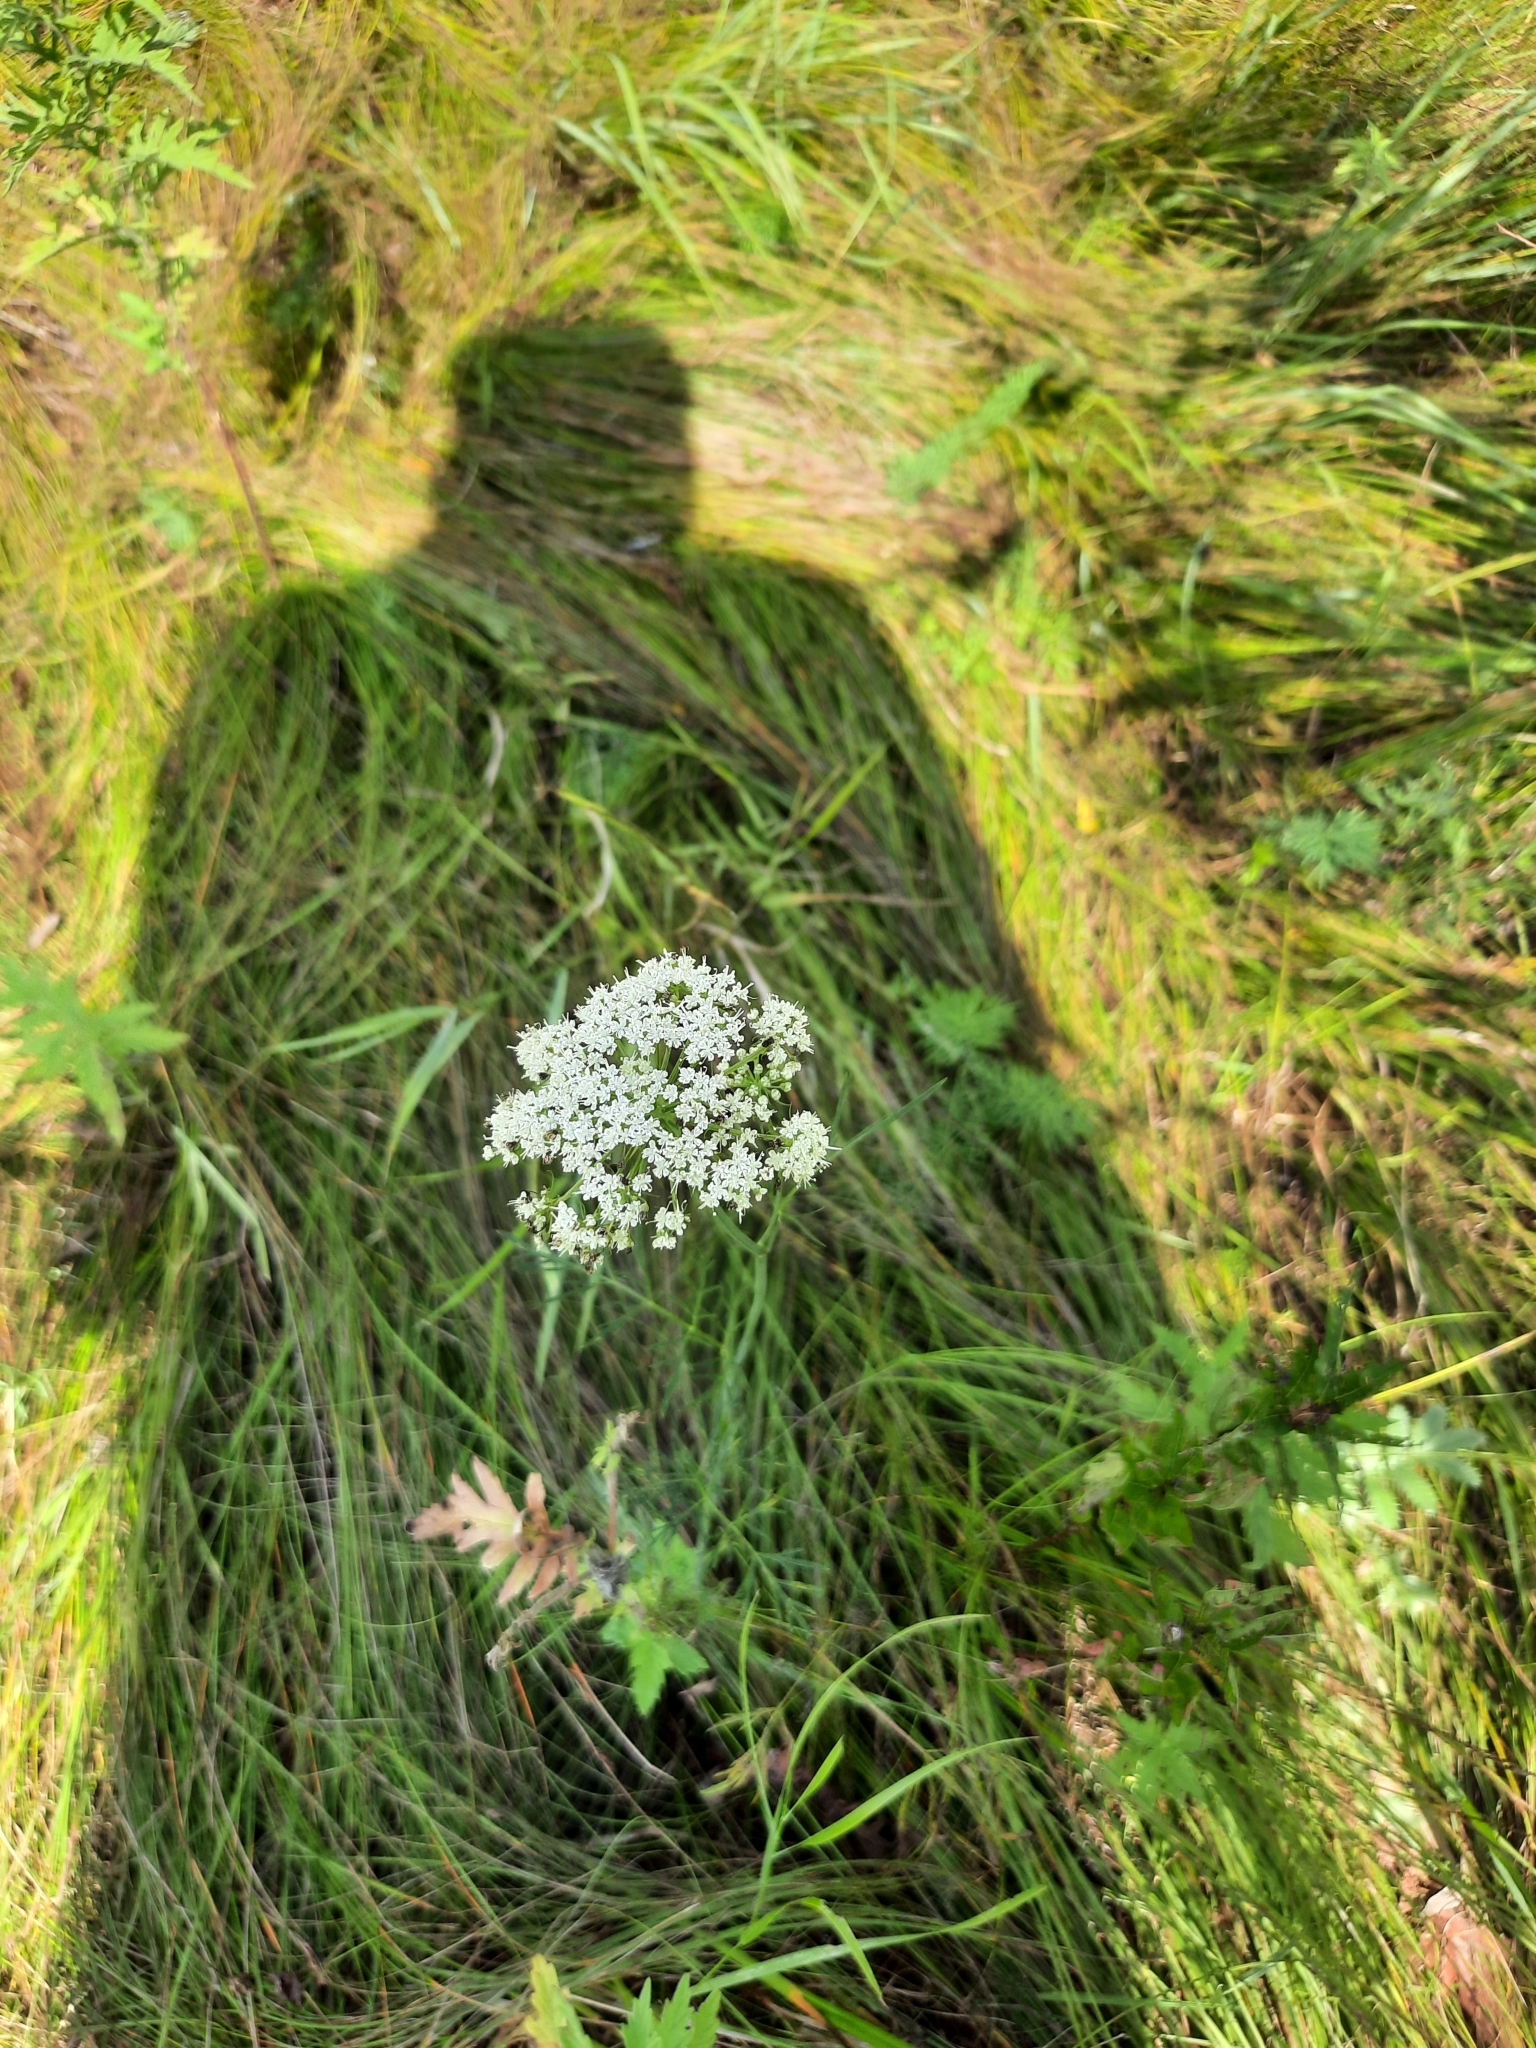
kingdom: Plantae
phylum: Tracheophyta
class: Magnoliopsida
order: Apiales
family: Apiaceae
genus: Pimpinella
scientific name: Pimpinella saxifraga
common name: Burnet-saxifrage
